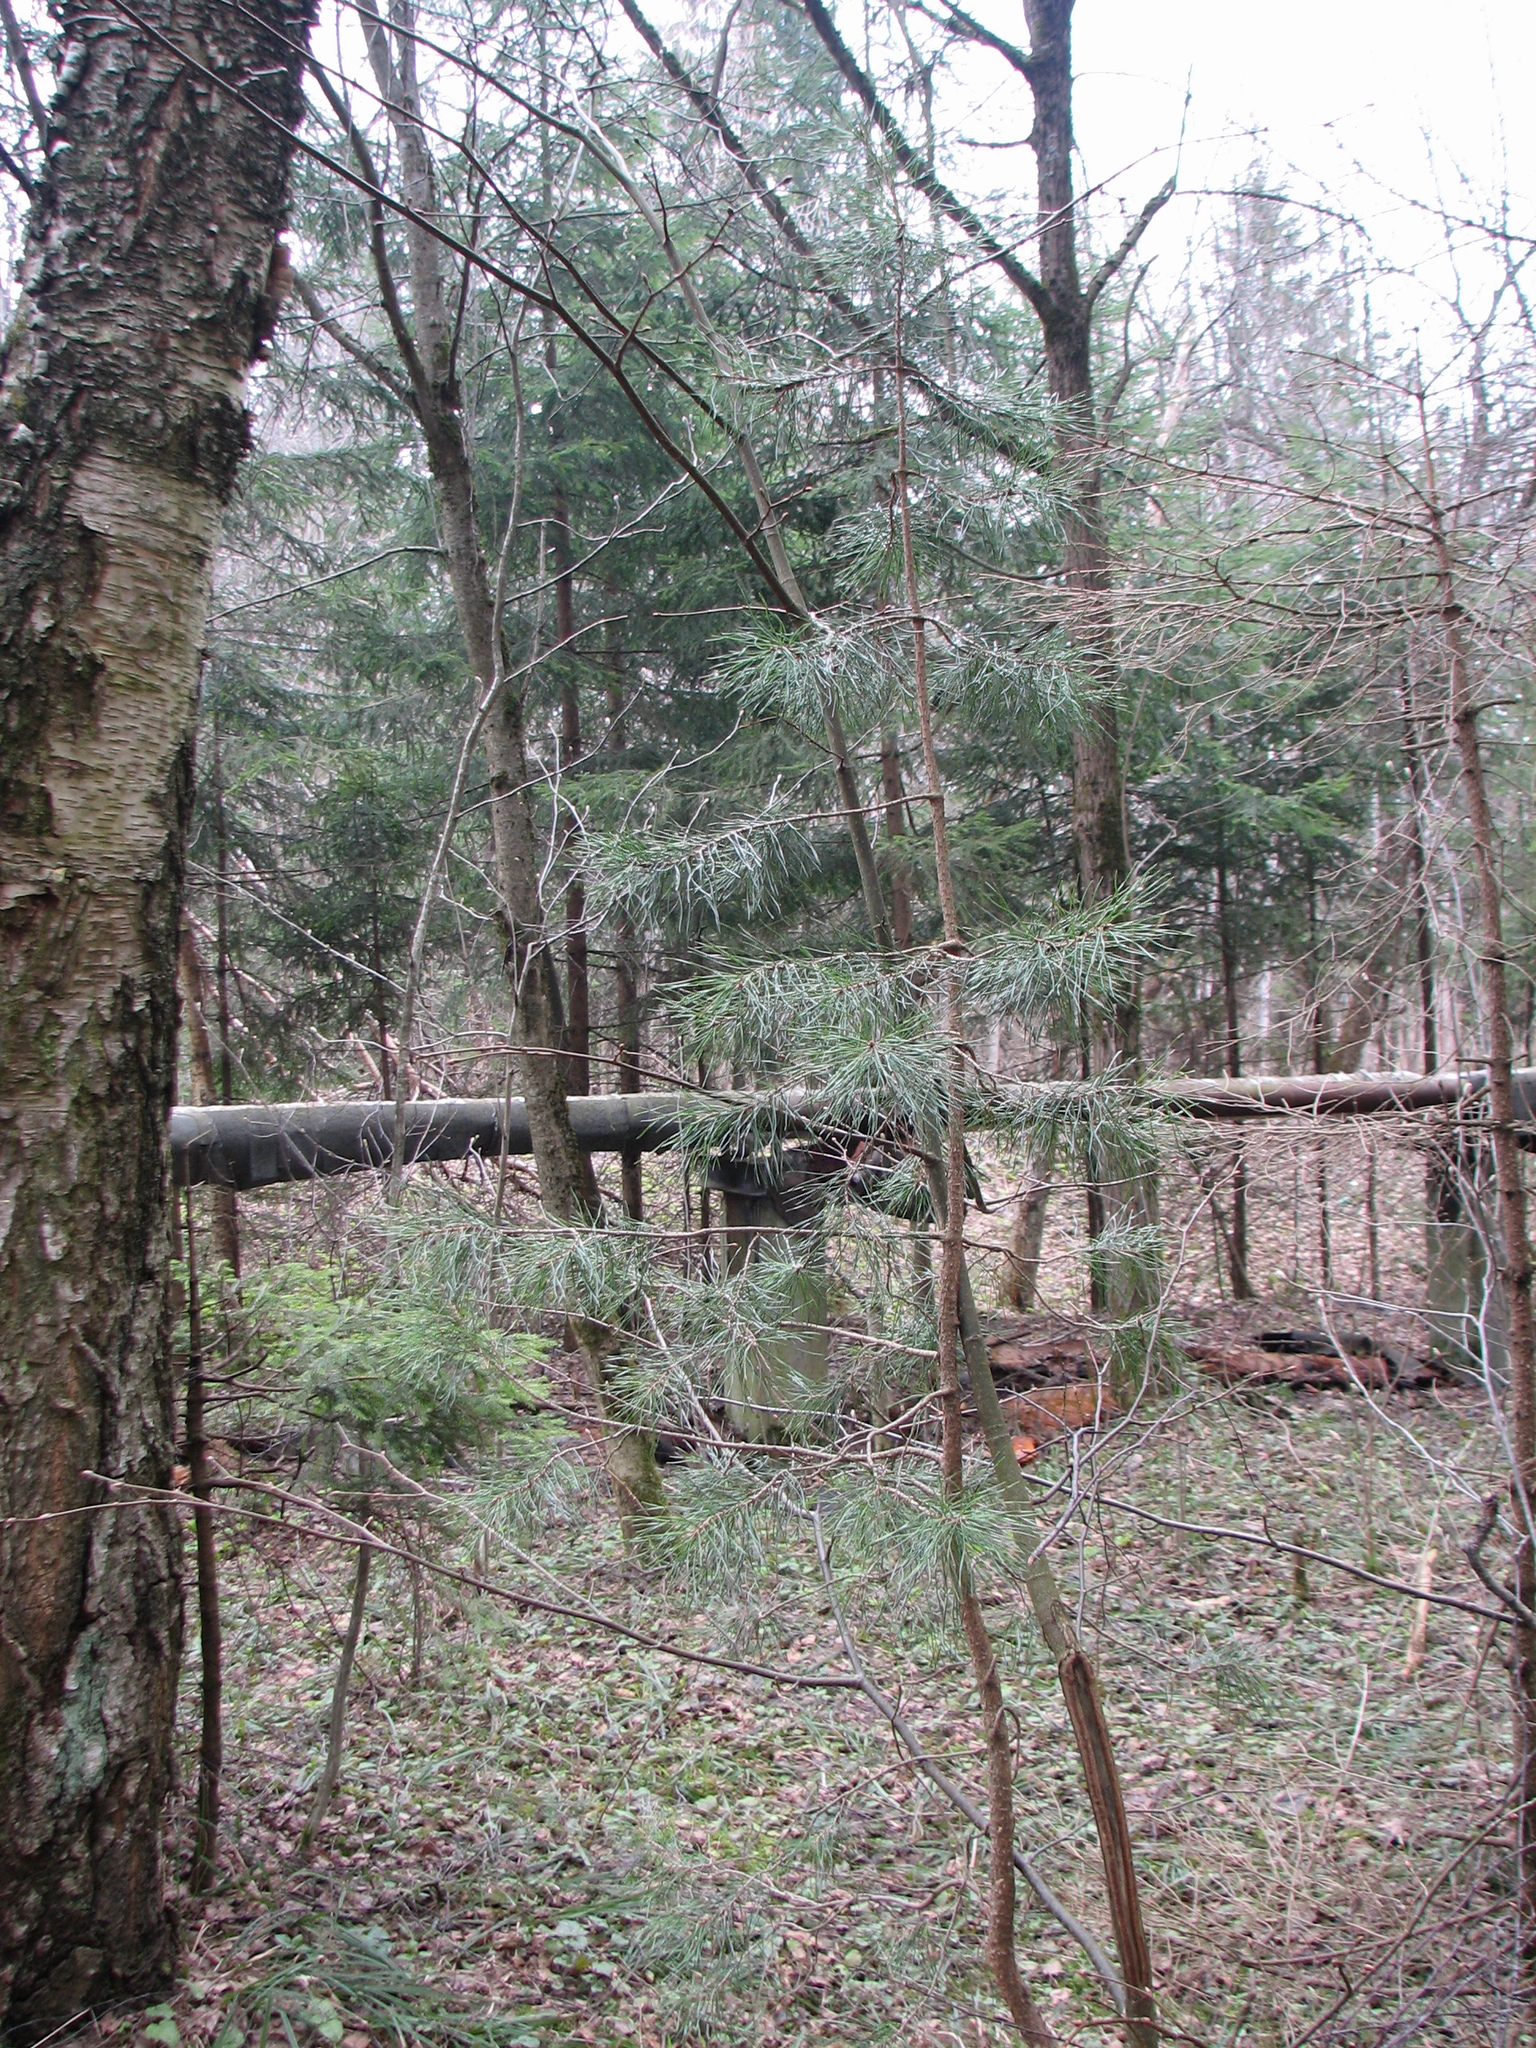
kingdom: Plantae
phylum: Tracheophyta
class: Pinopsida
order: Pinales
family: Pinaceae
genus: Pinus
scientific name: Pinus sylvestris
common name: Scots pine
